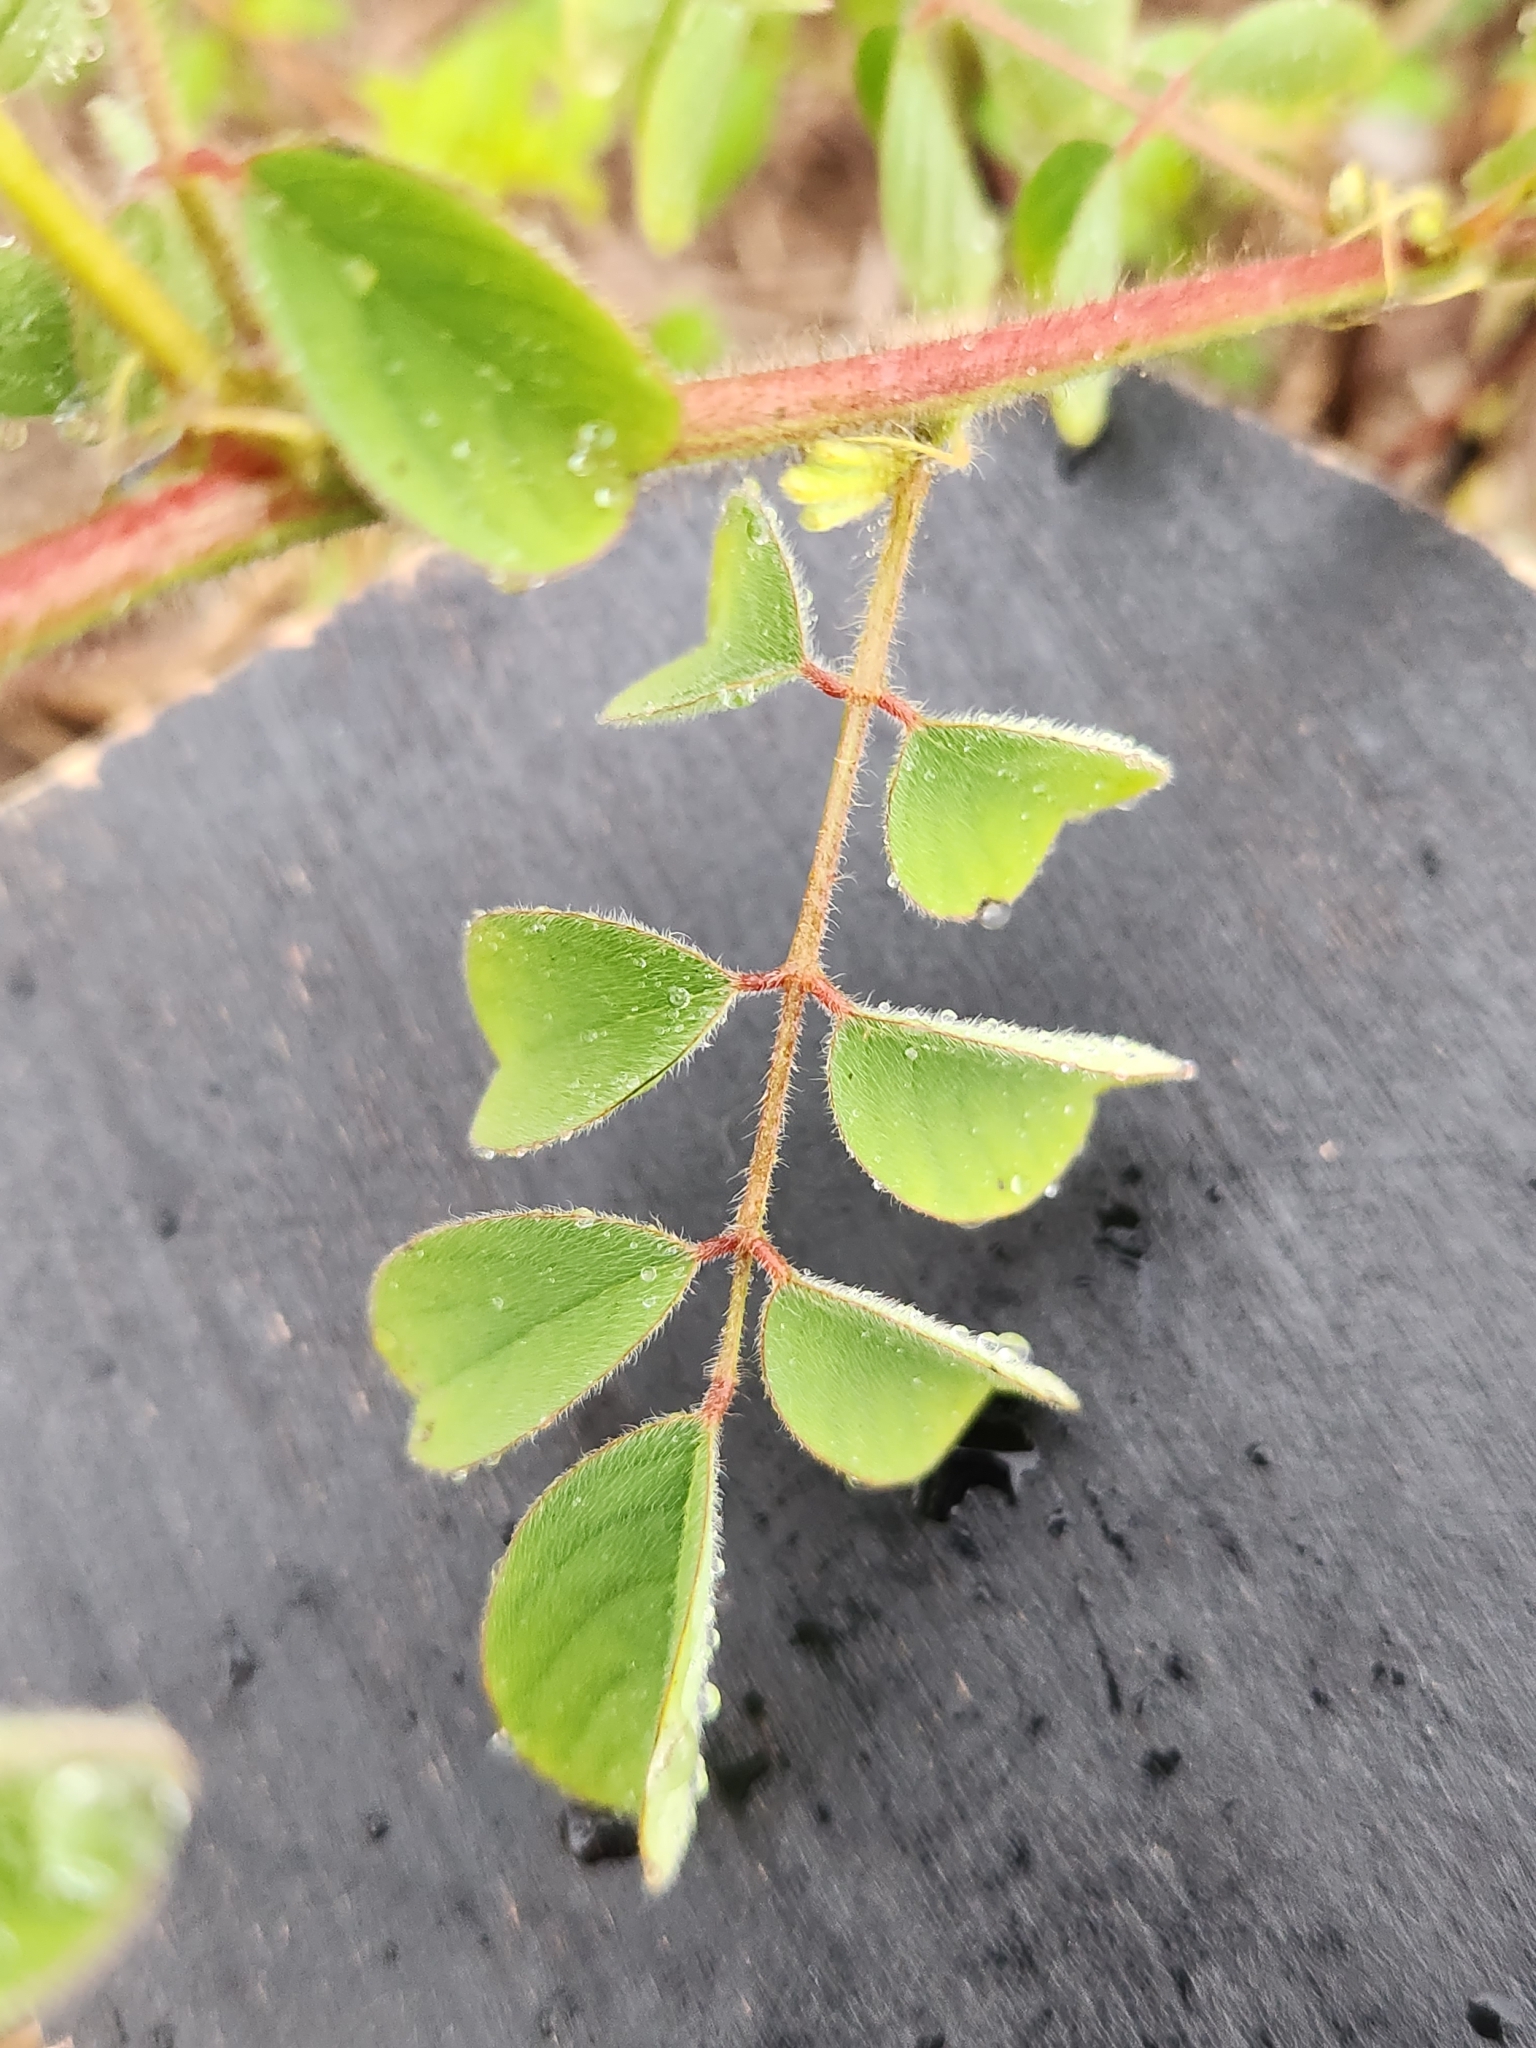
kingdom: Plantae
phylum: Tracheophyta
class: Magnoliopsida
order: Fabales
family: Fabaceae
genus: Indigofera
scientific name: Indigofera hirsuta
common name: Hairy indigo
